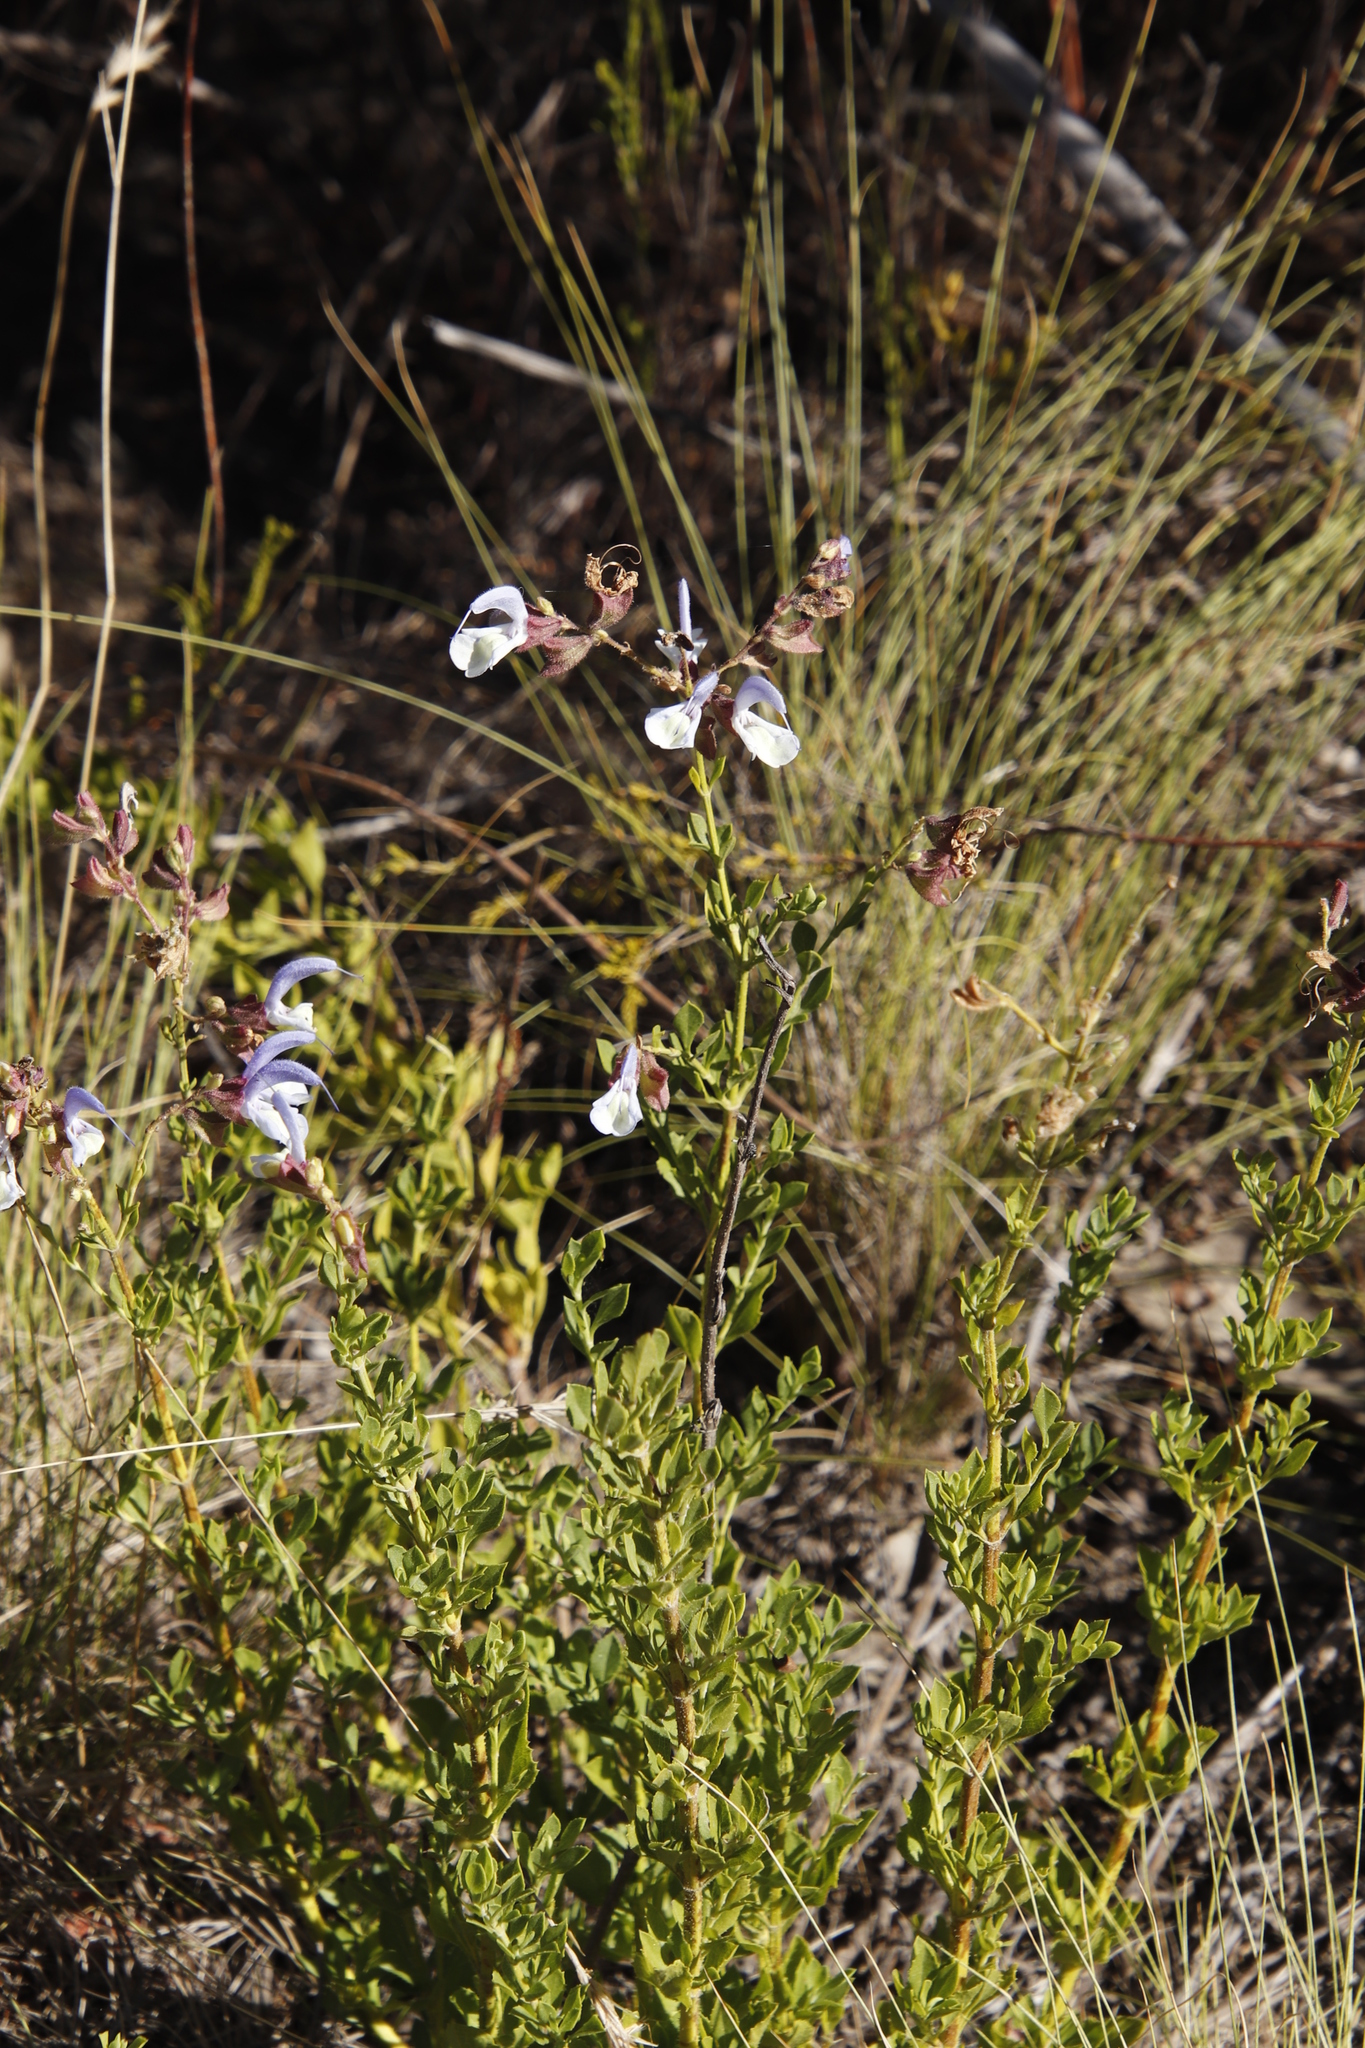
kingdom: Plantae
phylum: Tracheophyta
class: Magnoliopsida
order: Lamiales
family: Lamiaceae
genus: Salvia
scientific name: Salvia chamelaeagnea
